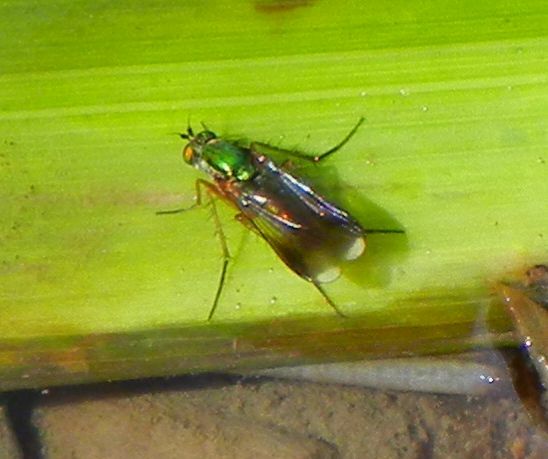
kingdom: Animalia
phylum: Arthropoda
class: Insecta
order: Diptera
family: Dolichopodidae
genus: Poecilobothrus
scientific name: Poecilobothrus nobilitatus
